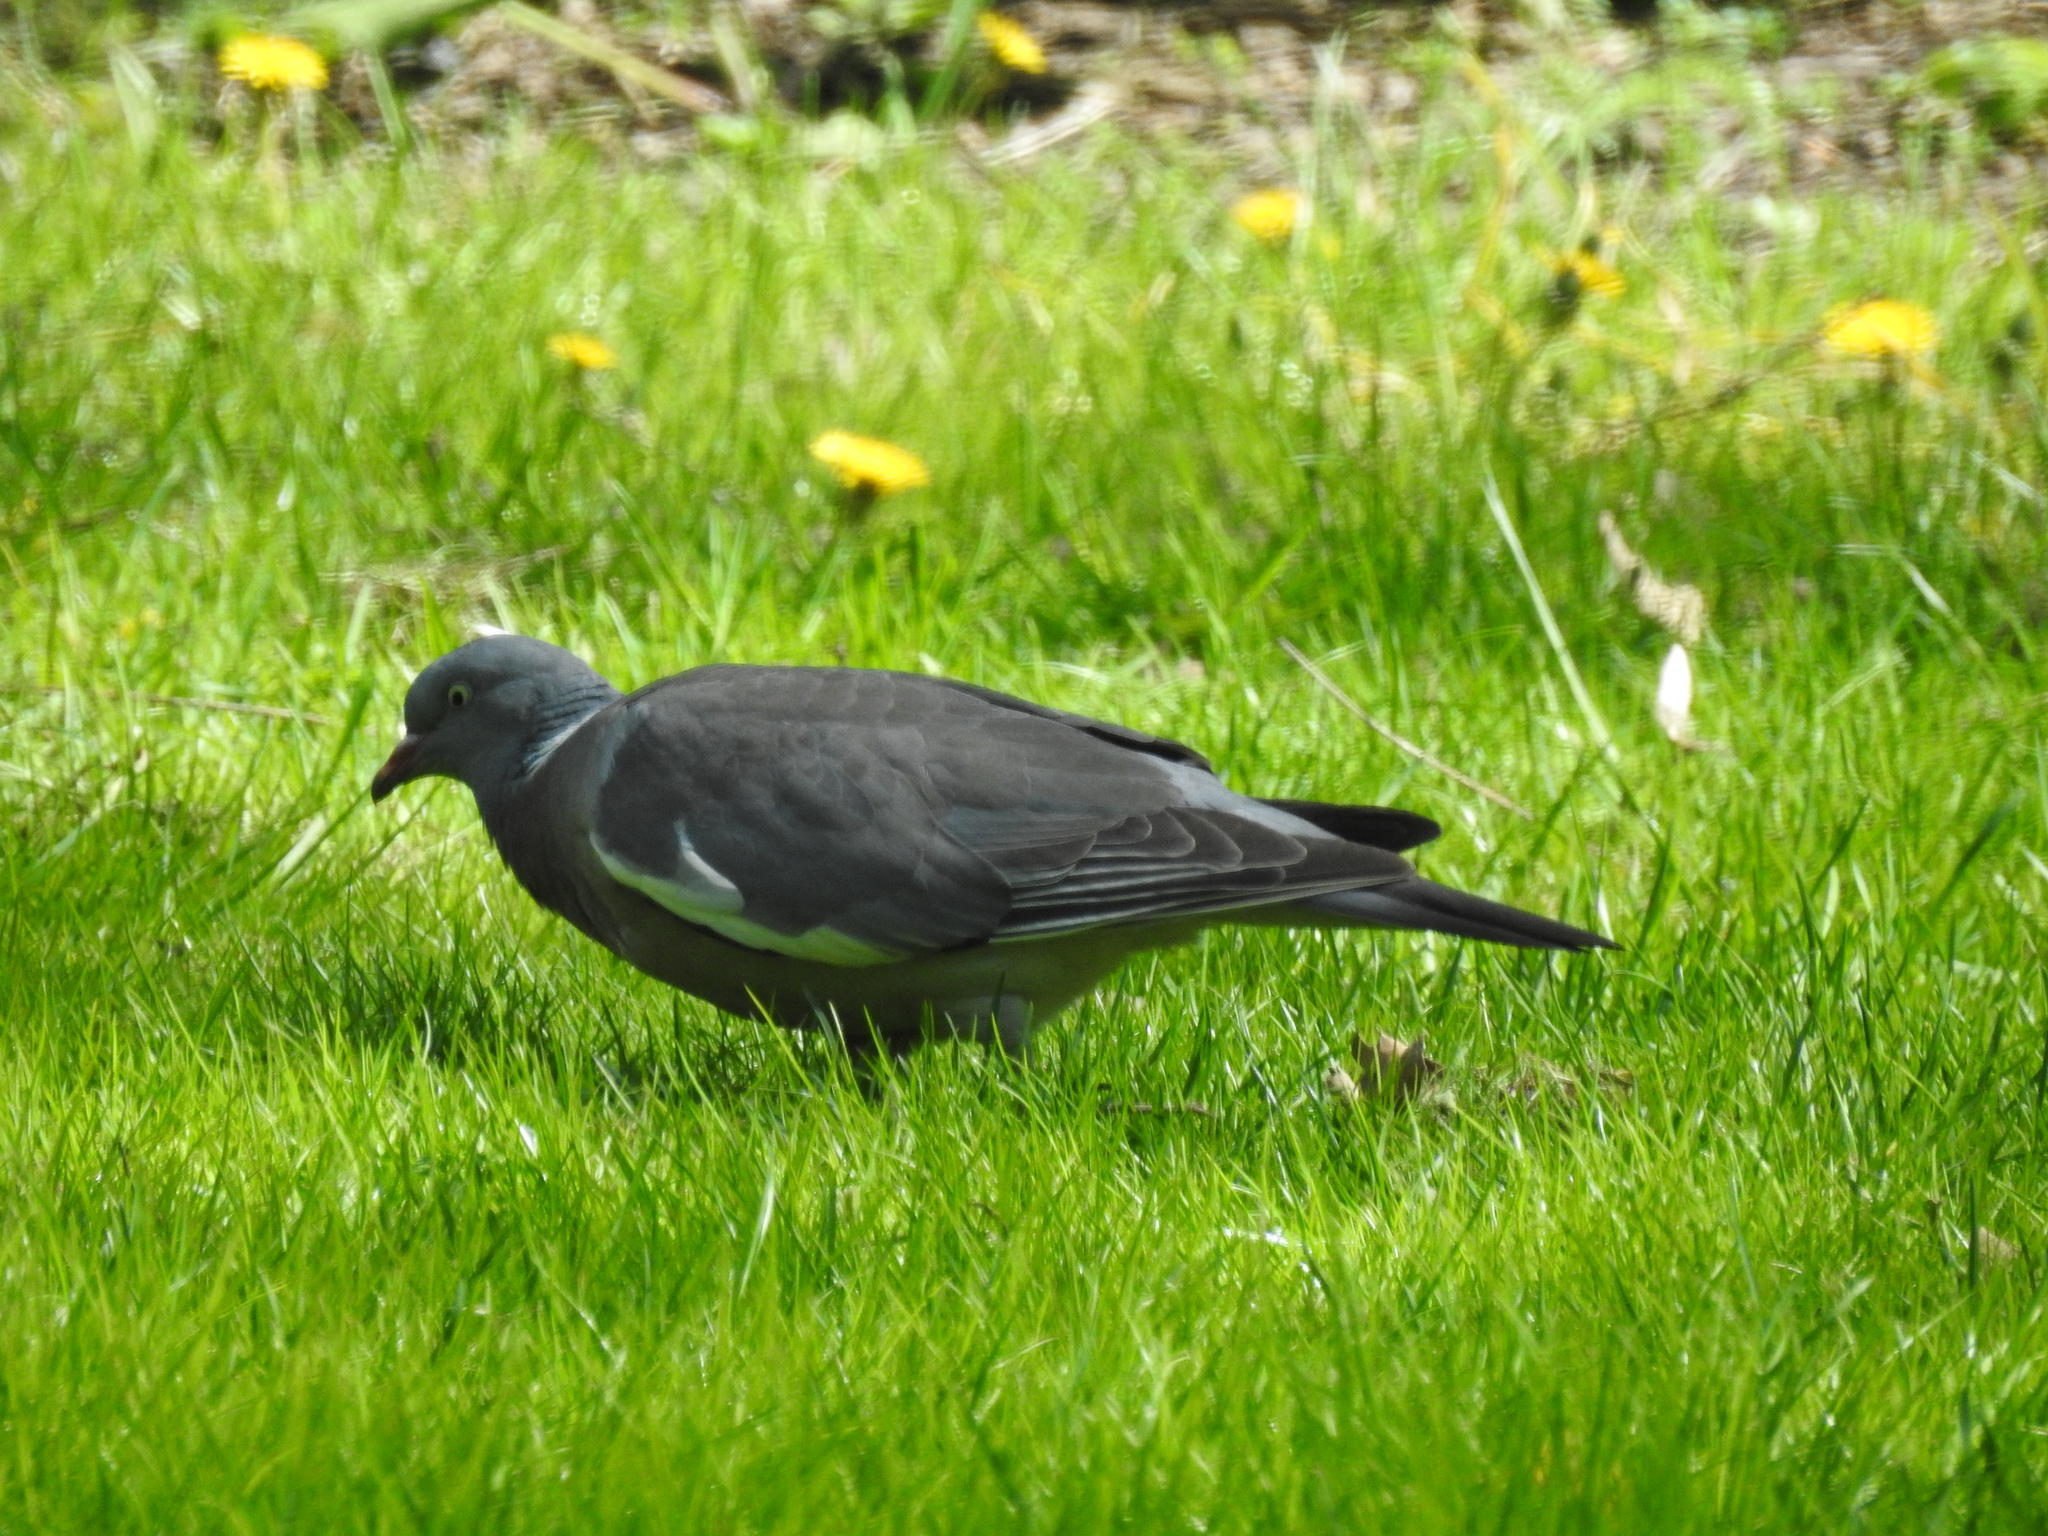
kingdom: Animalia
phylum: Chordata
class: Aves
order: Columbiformes
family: Columbidae
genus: Columba
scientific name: Columba palumbus
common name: Common wood pigeon
